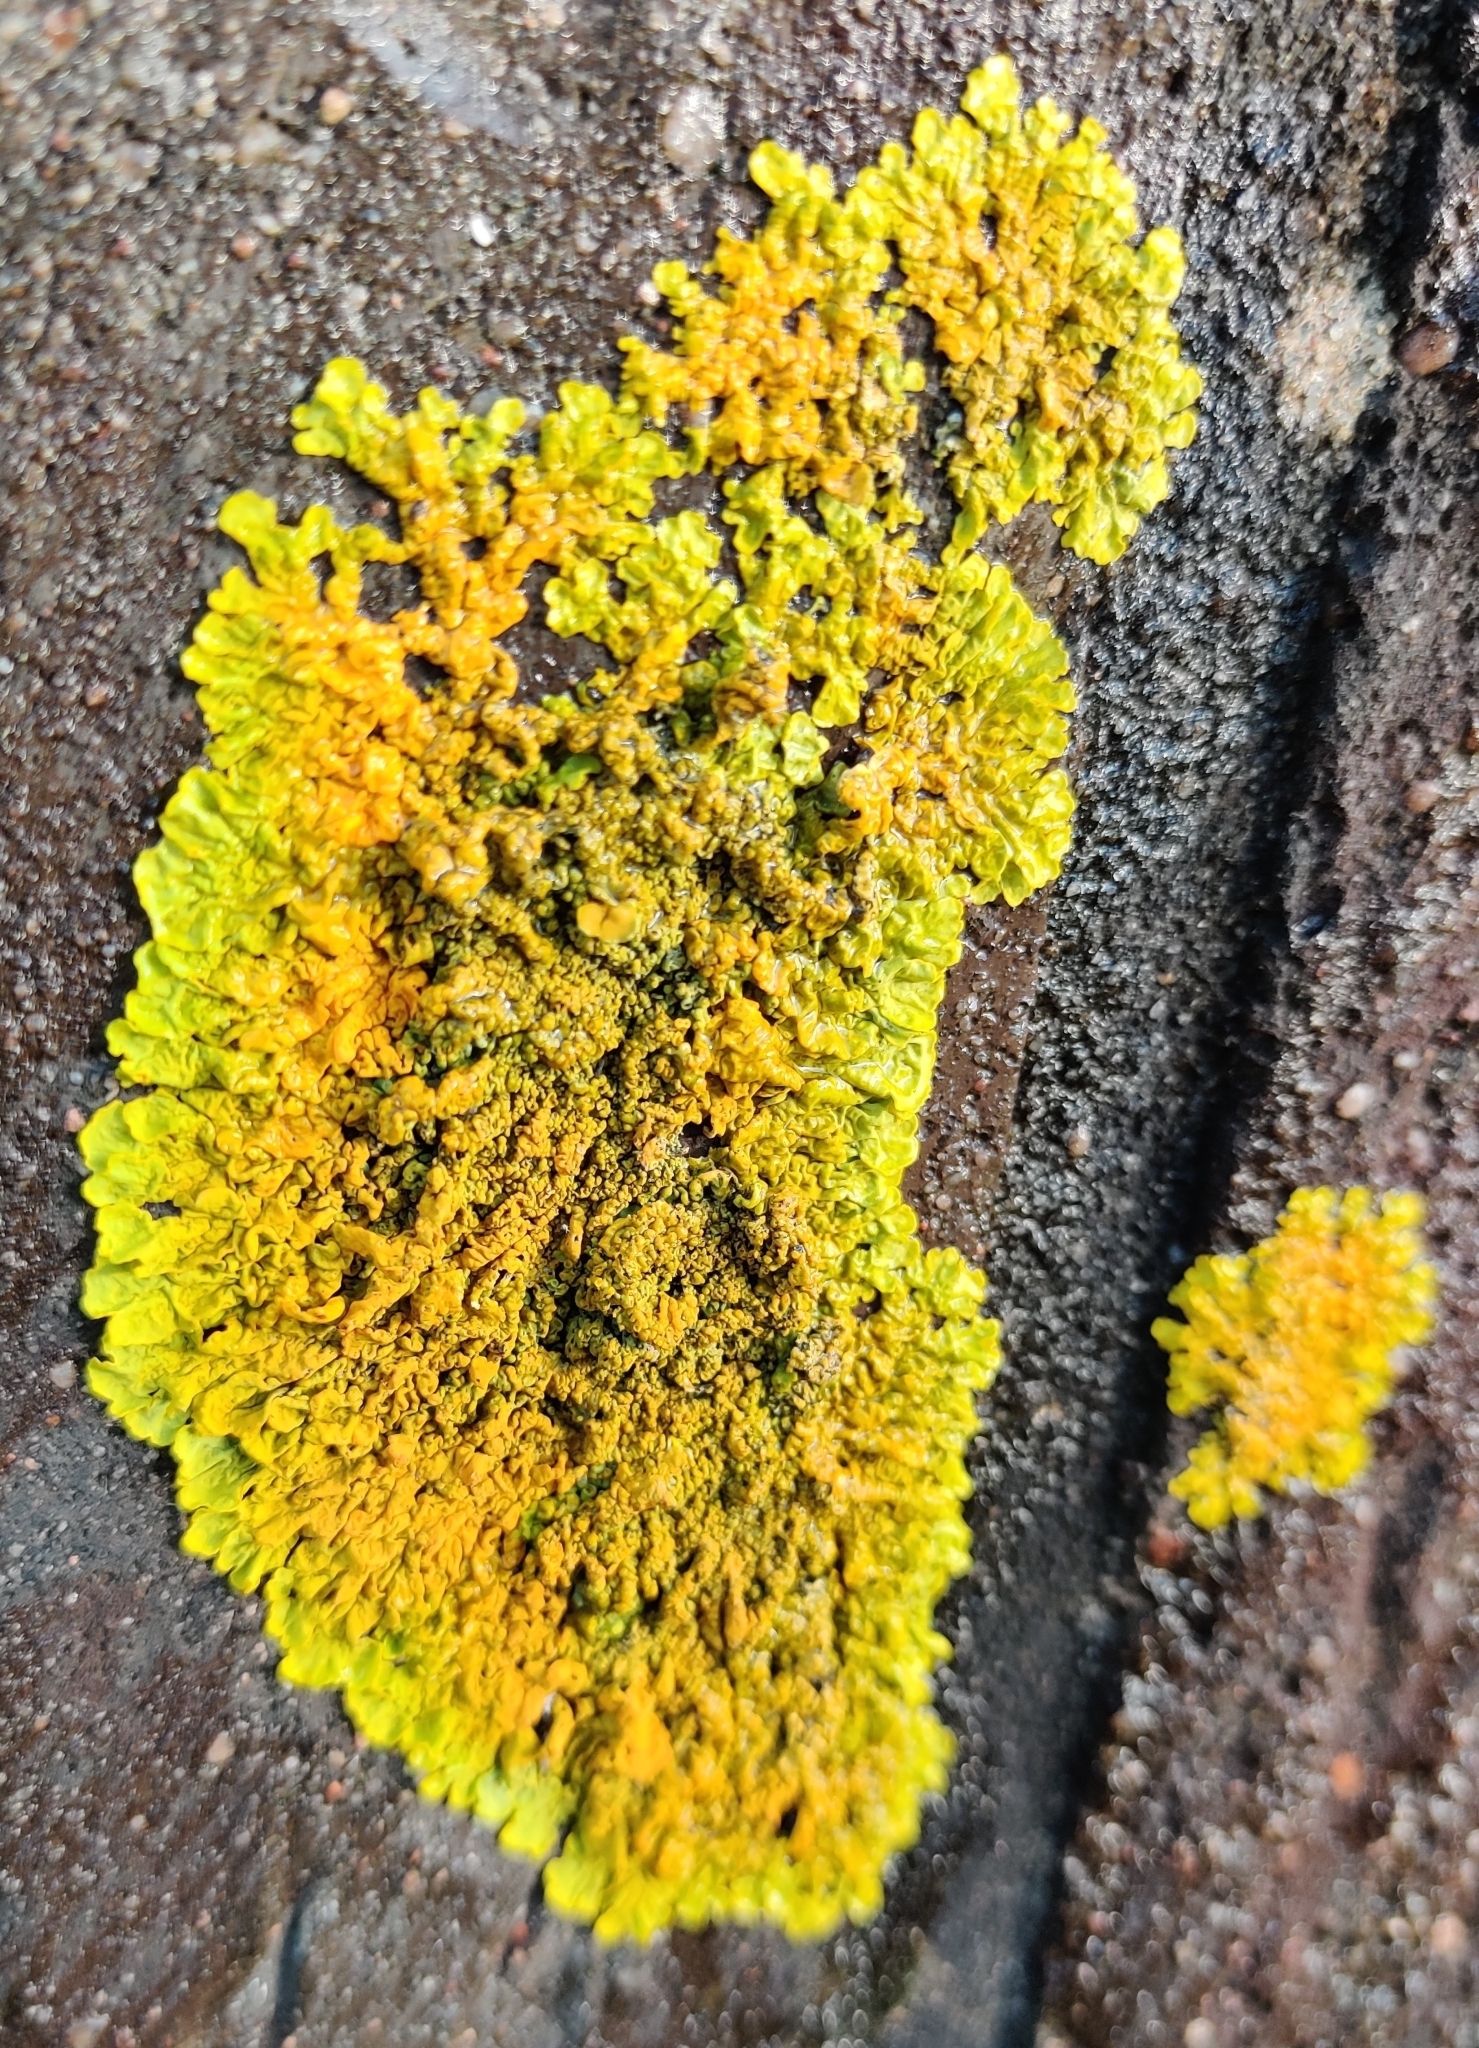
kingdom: Fungi
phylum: Ascomycota
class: Lecanoromycetes
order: Teloschistales
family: Teloschistaceae
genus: Xanthoria
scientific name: Xanthoria calcicola
